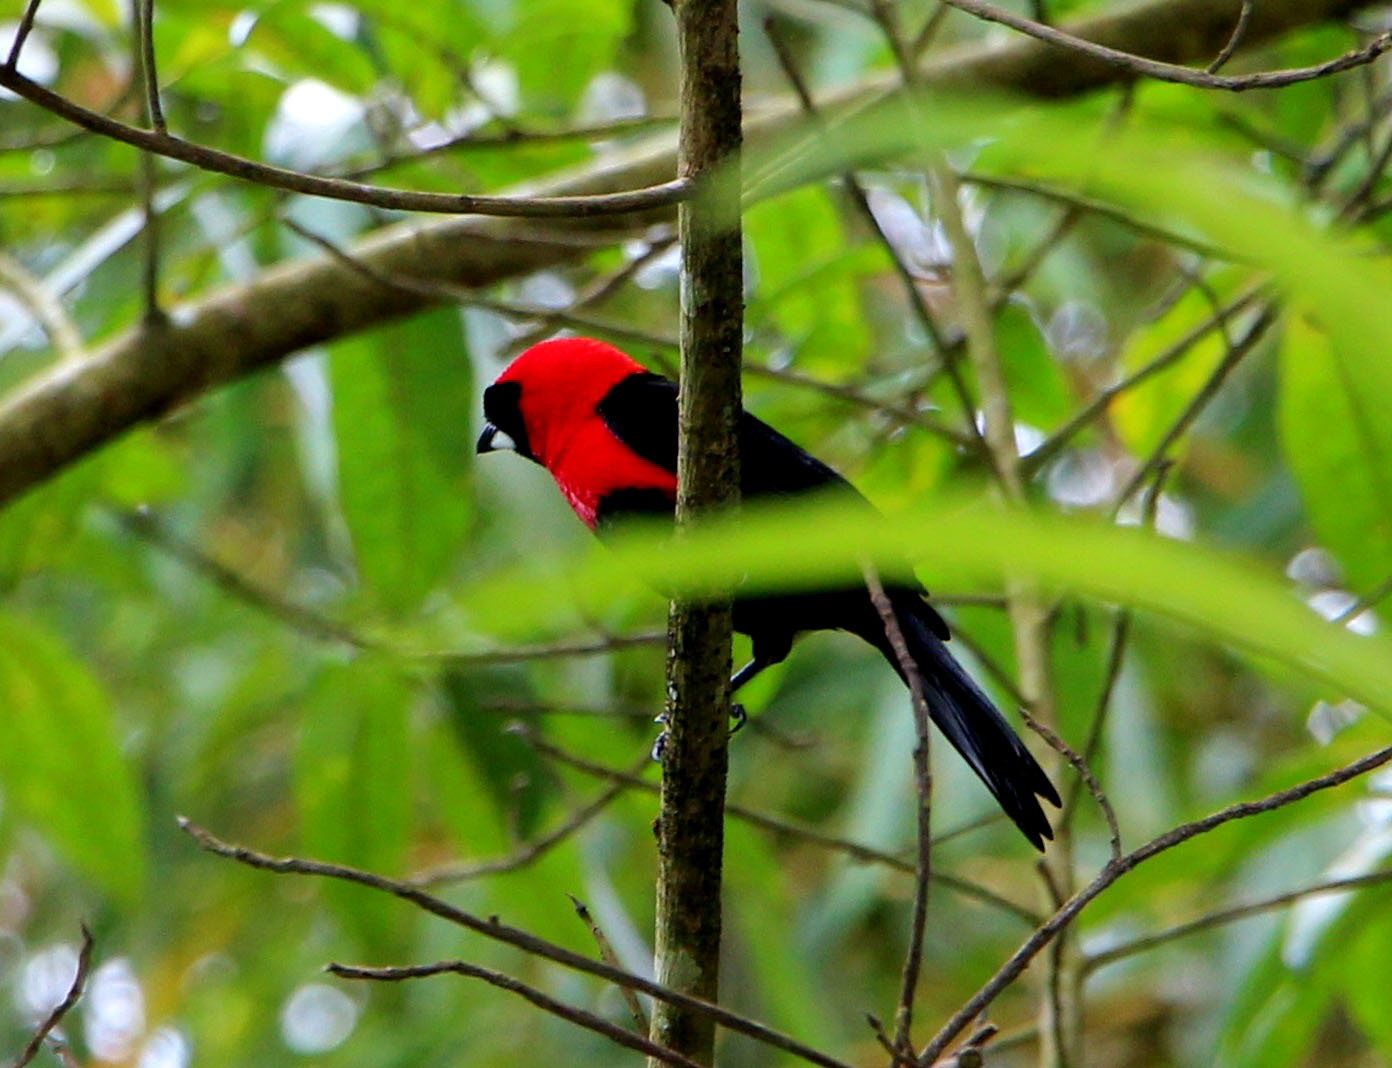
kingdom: Animalia
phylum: Chordata
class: Aves
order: Passeriformes
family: Thraupidae
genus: Ramphocelus
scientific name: Ramphocelus nigrogularis
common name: Masked crimson tanager
